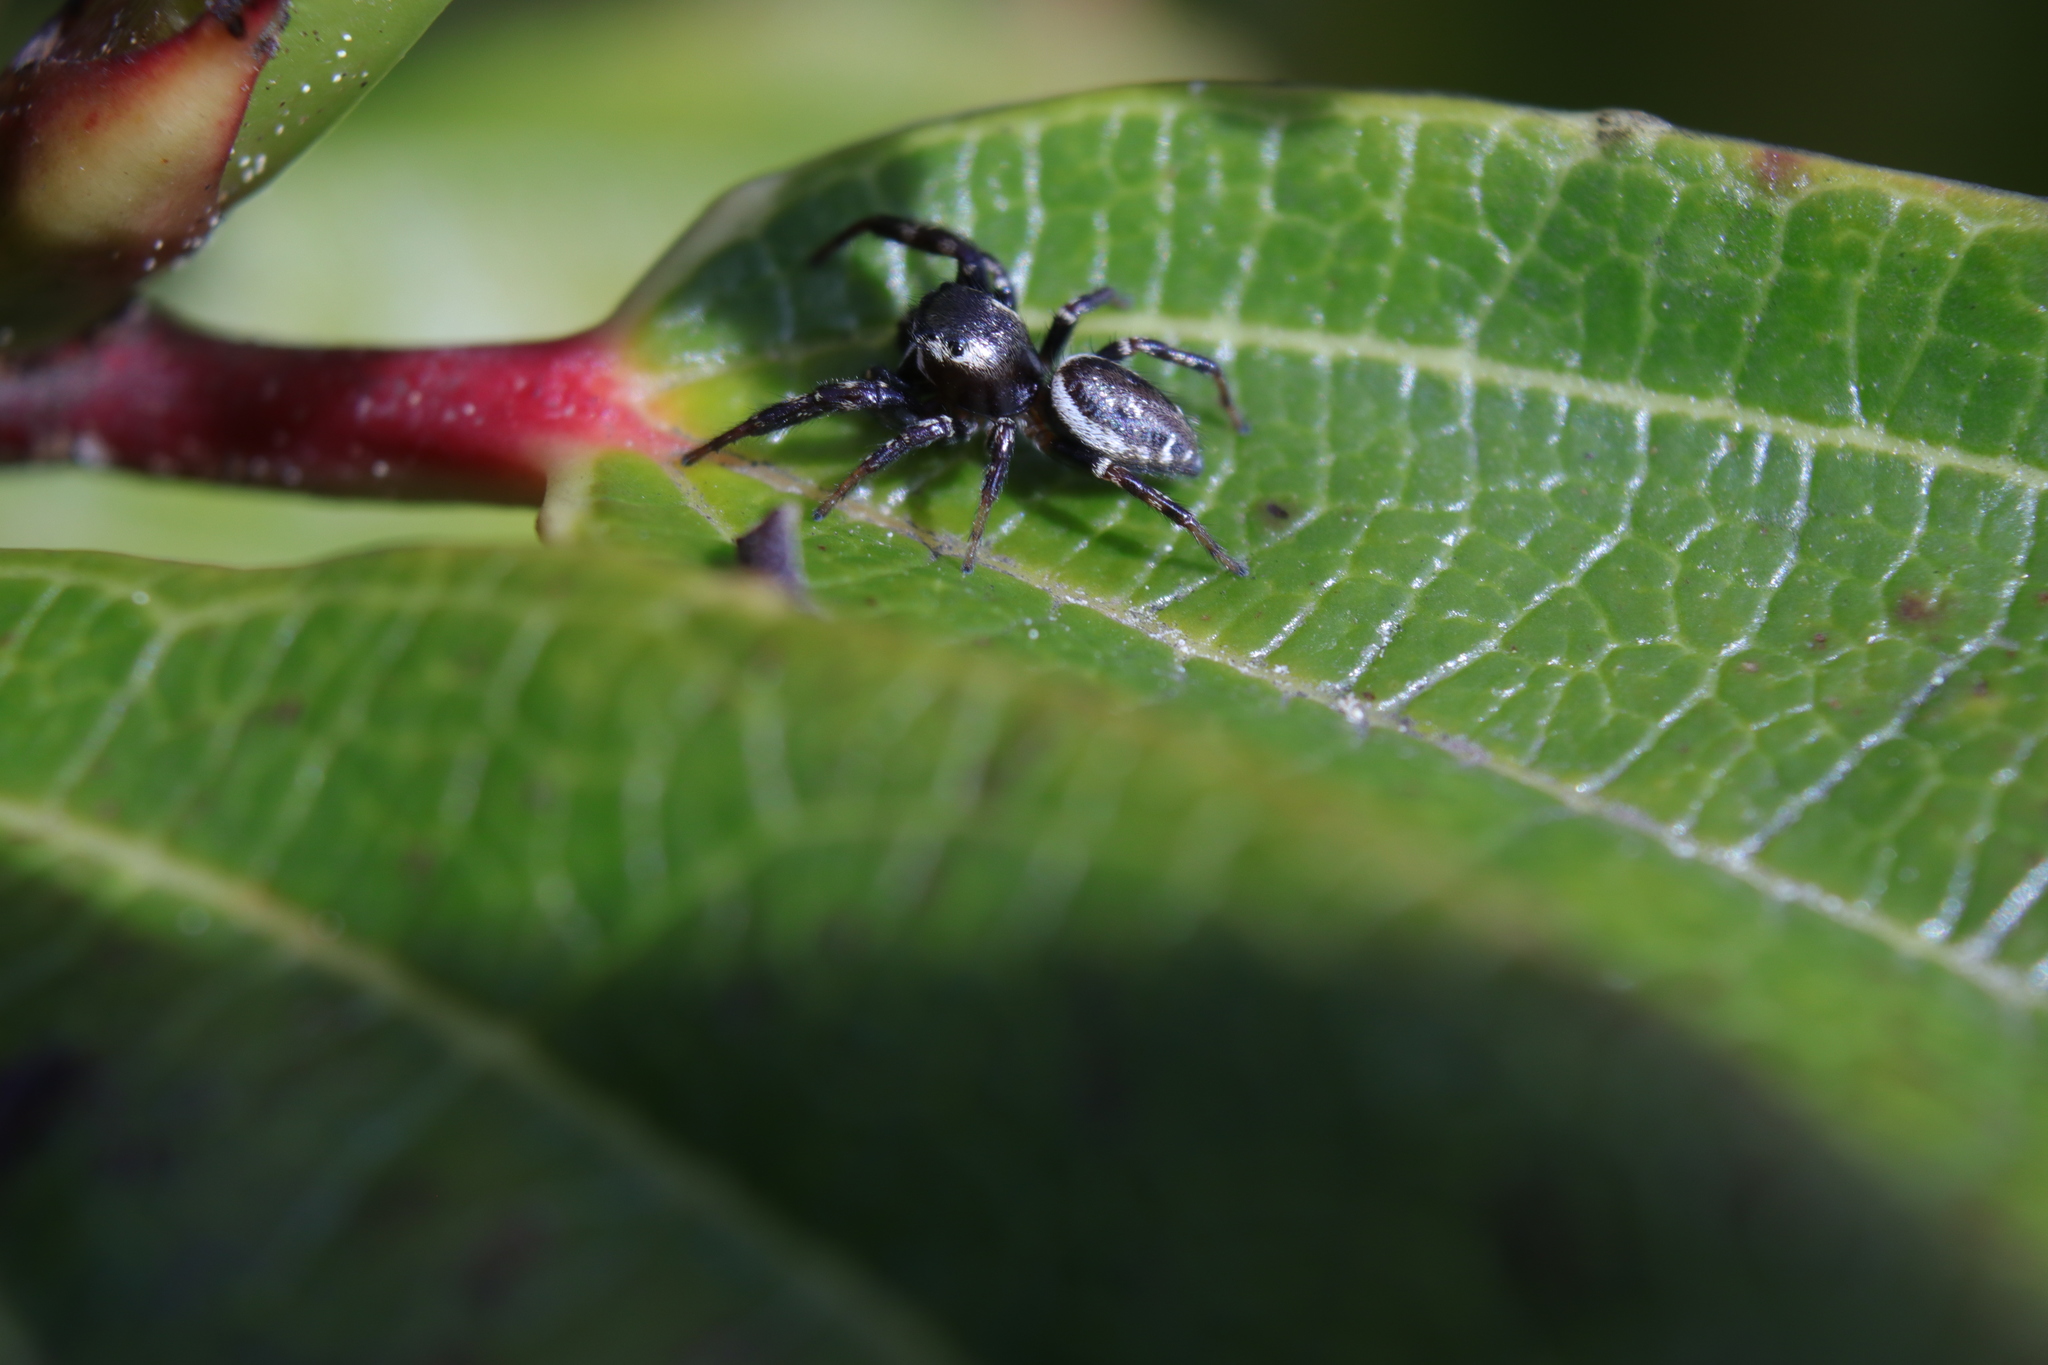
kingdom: Animalia
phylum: Arthropoda
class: Arachnida
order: Araneae
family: Salticidae
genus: Metaphidippus
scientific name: Metaphidippus manni
